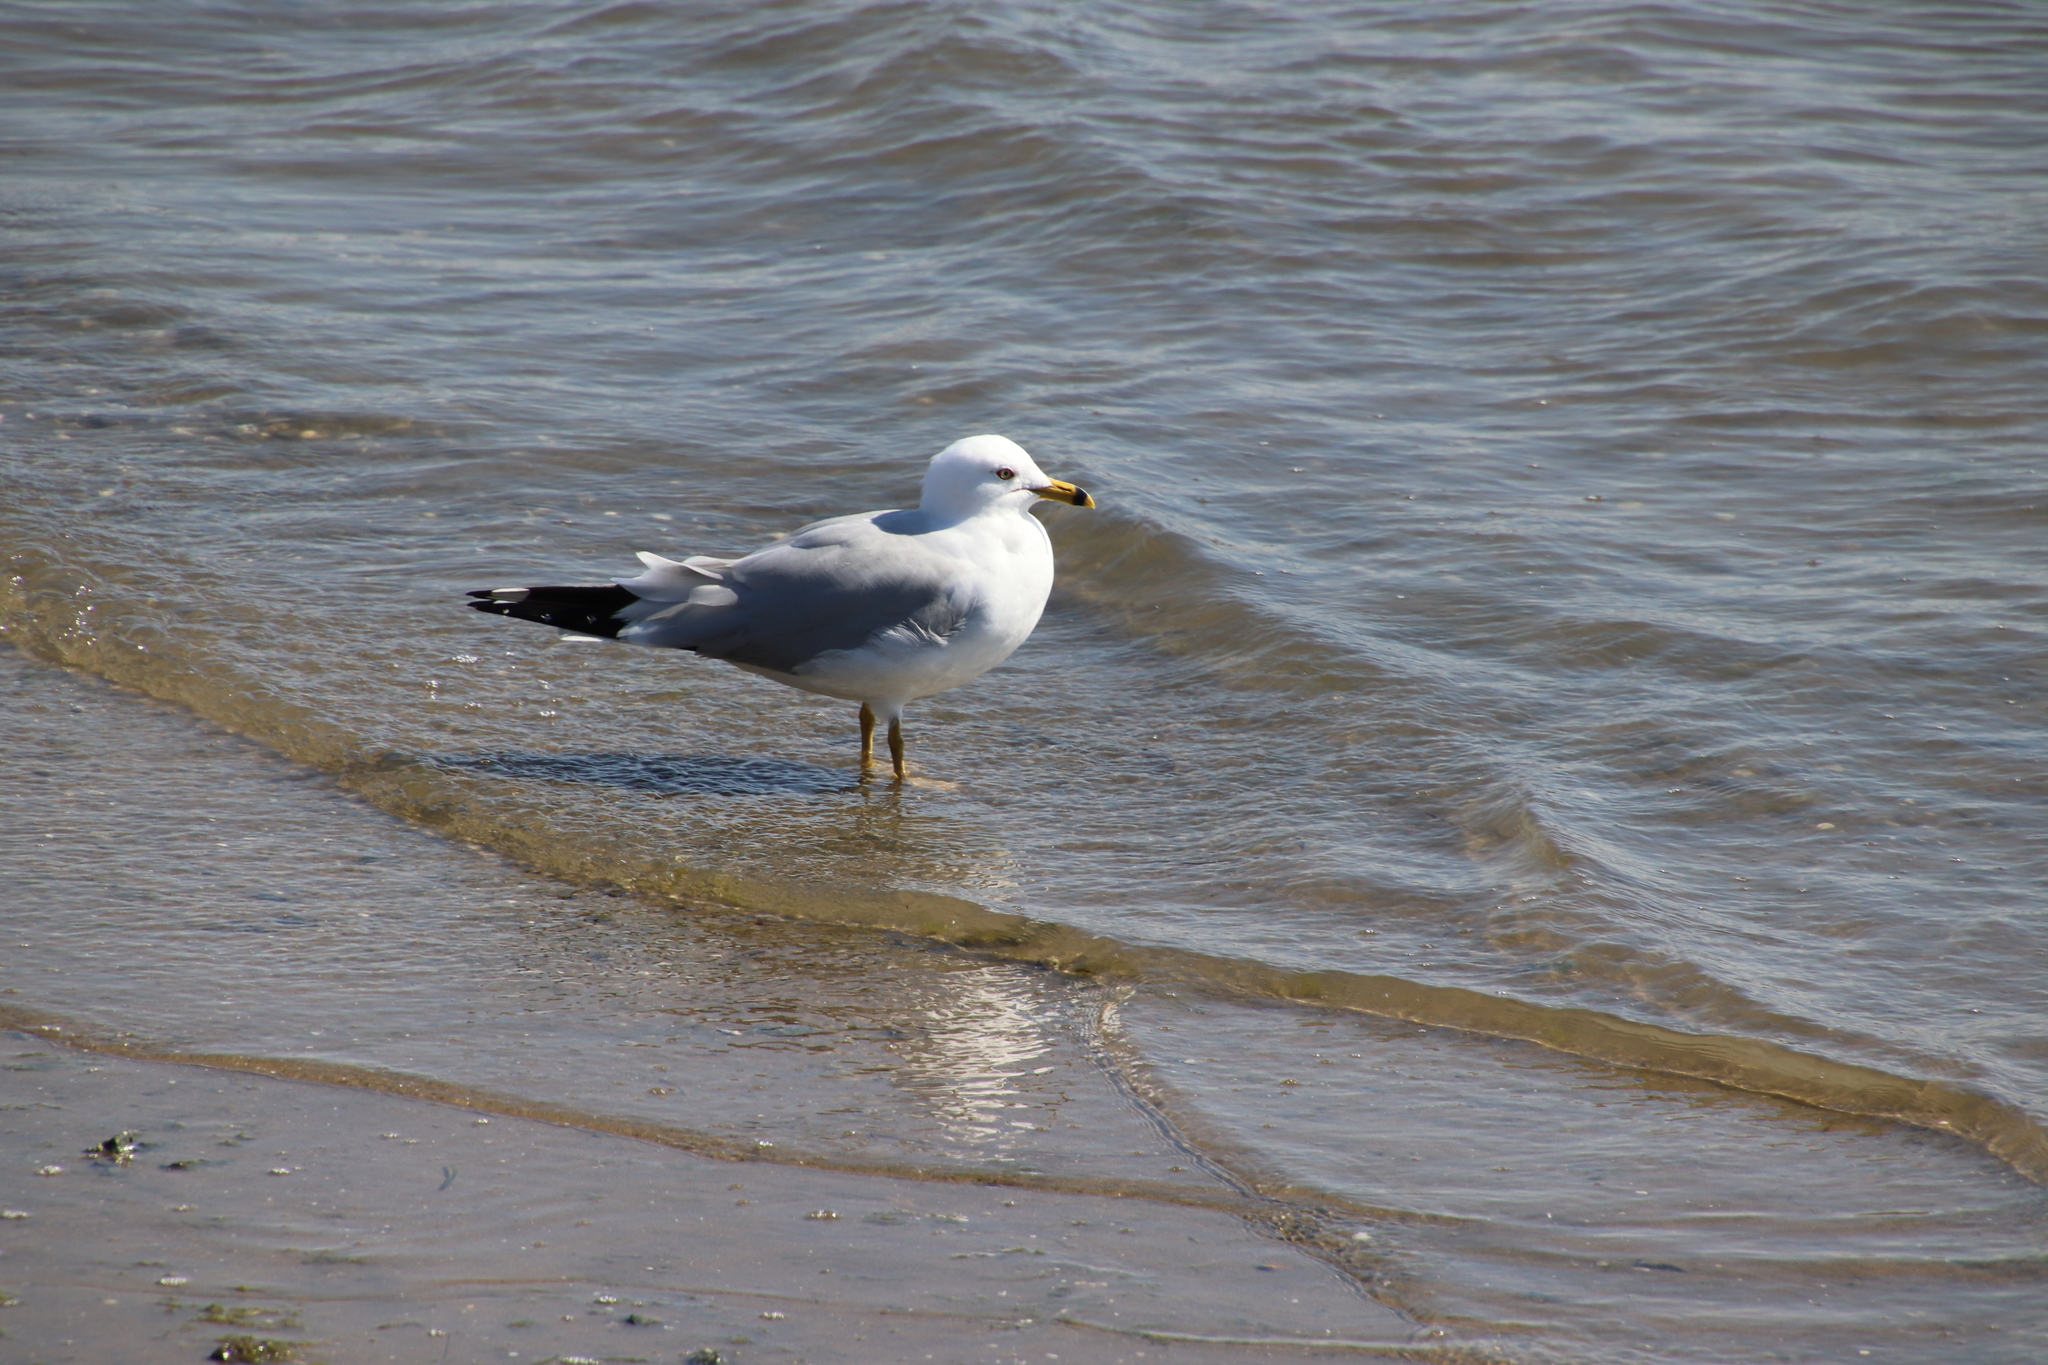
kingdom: Animalia
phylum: Chordata
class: Aves
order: Charadriiformes
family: Laridae
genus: Larus
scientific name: Larus delawarensis
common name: Ring-billed gull
